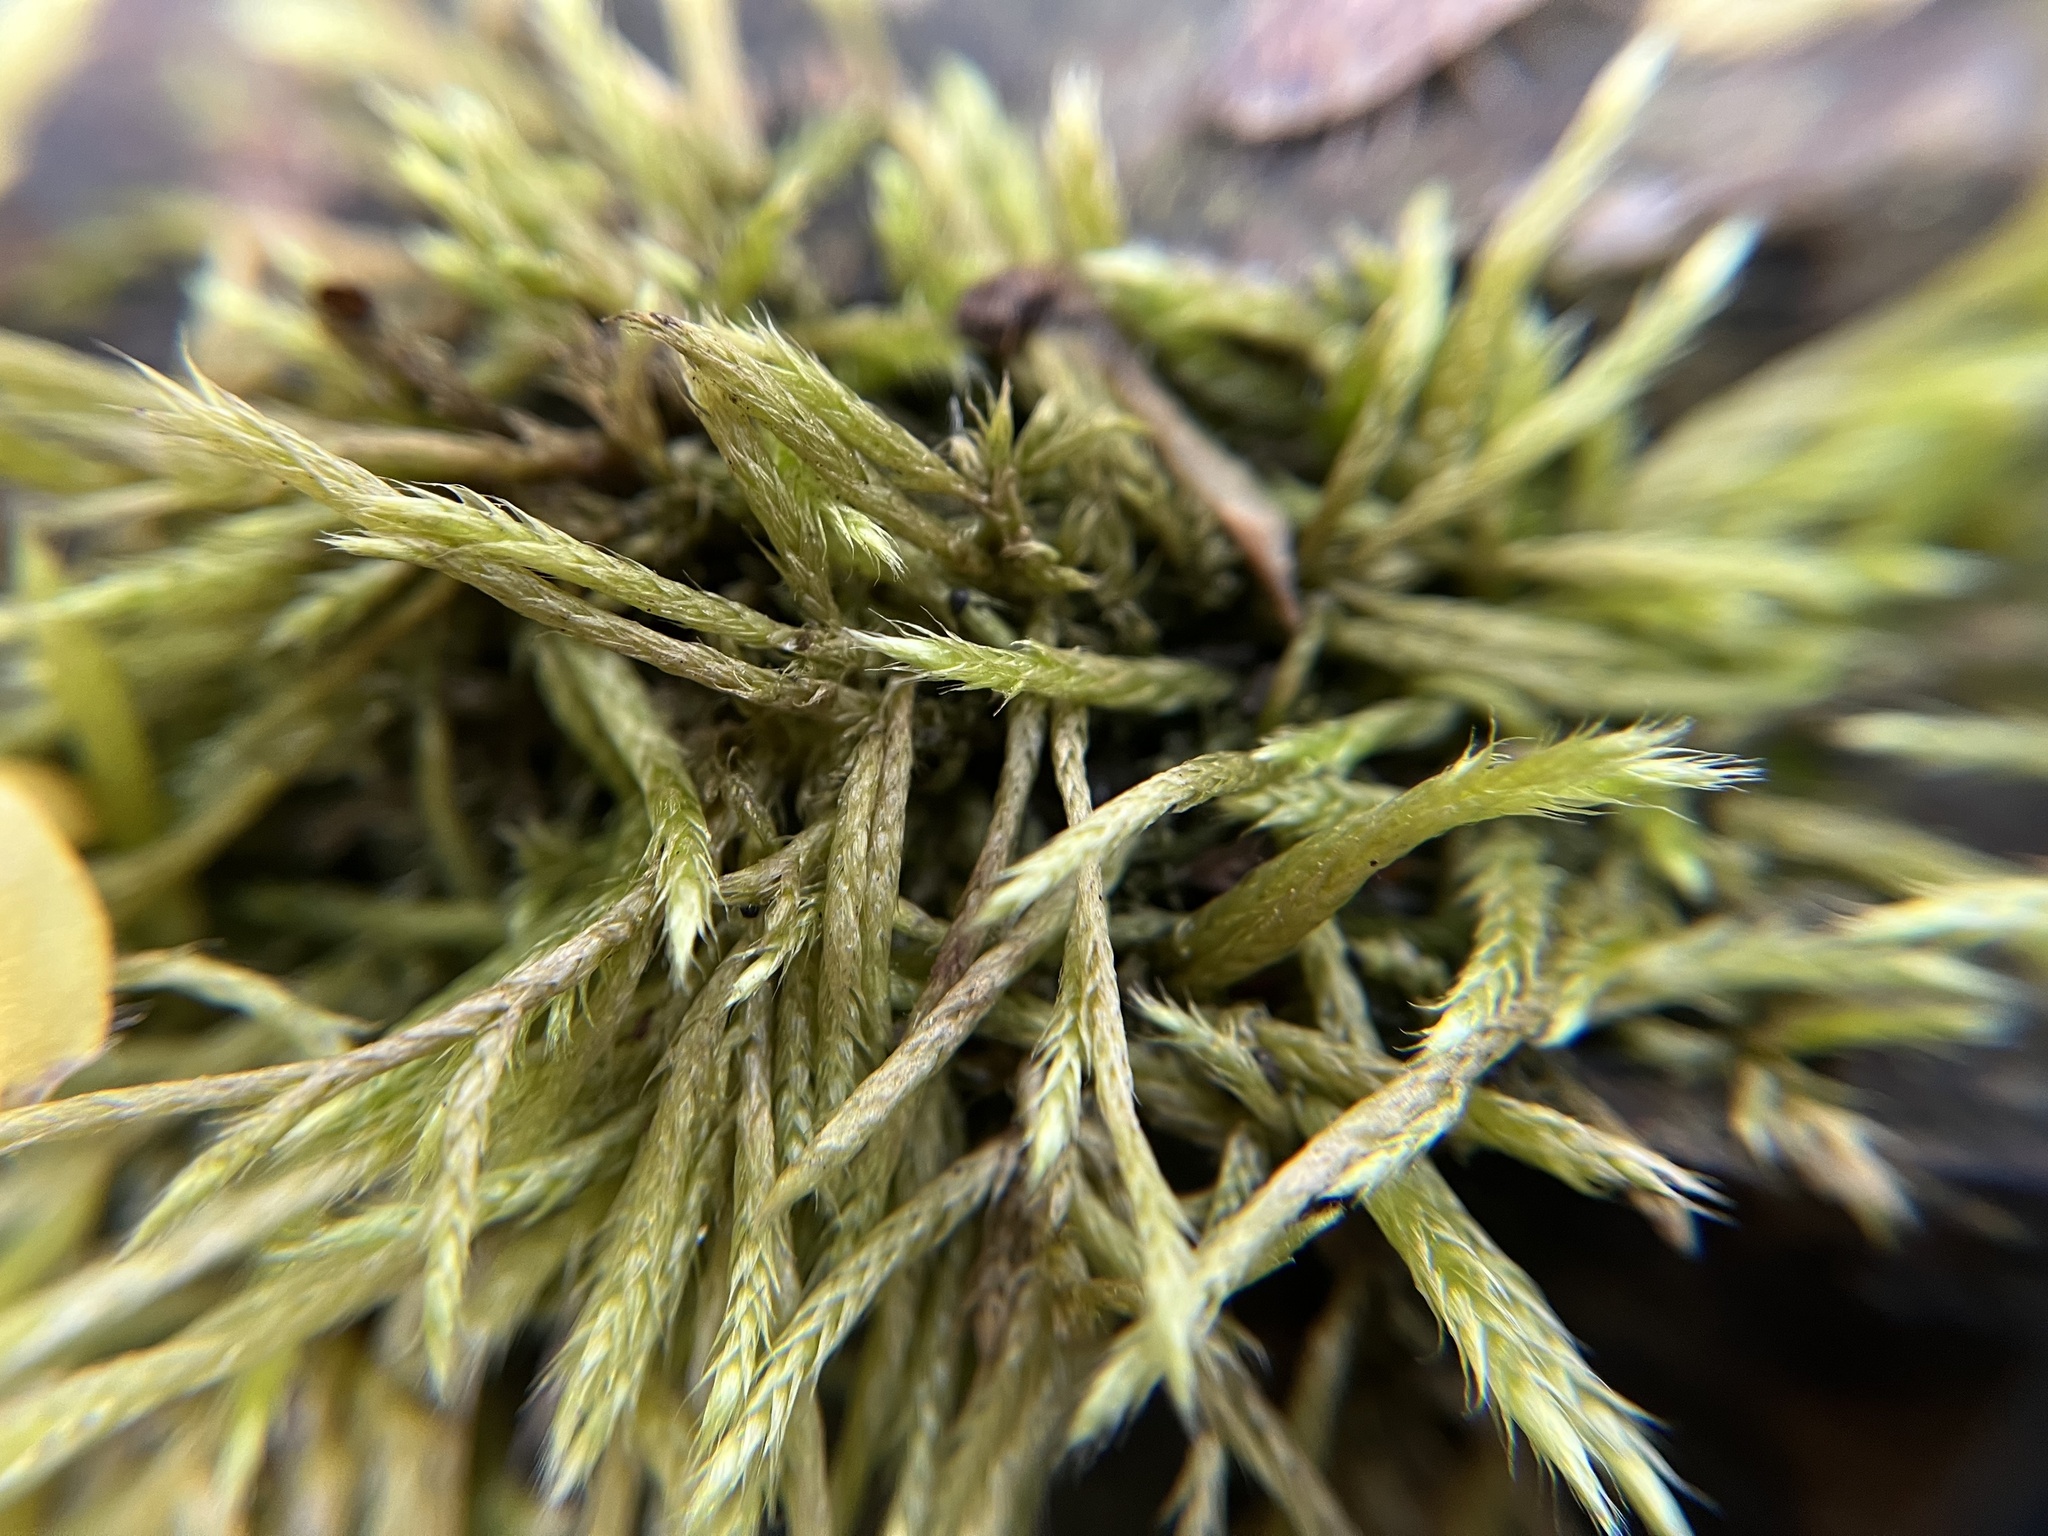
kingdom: Plantae
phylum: Bryophyta
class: Bryopsida
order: Hypnales
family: Brachytheciaceae
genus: Brachythecium
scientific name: Brachythecium albicans
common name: Whitish ragged moss
